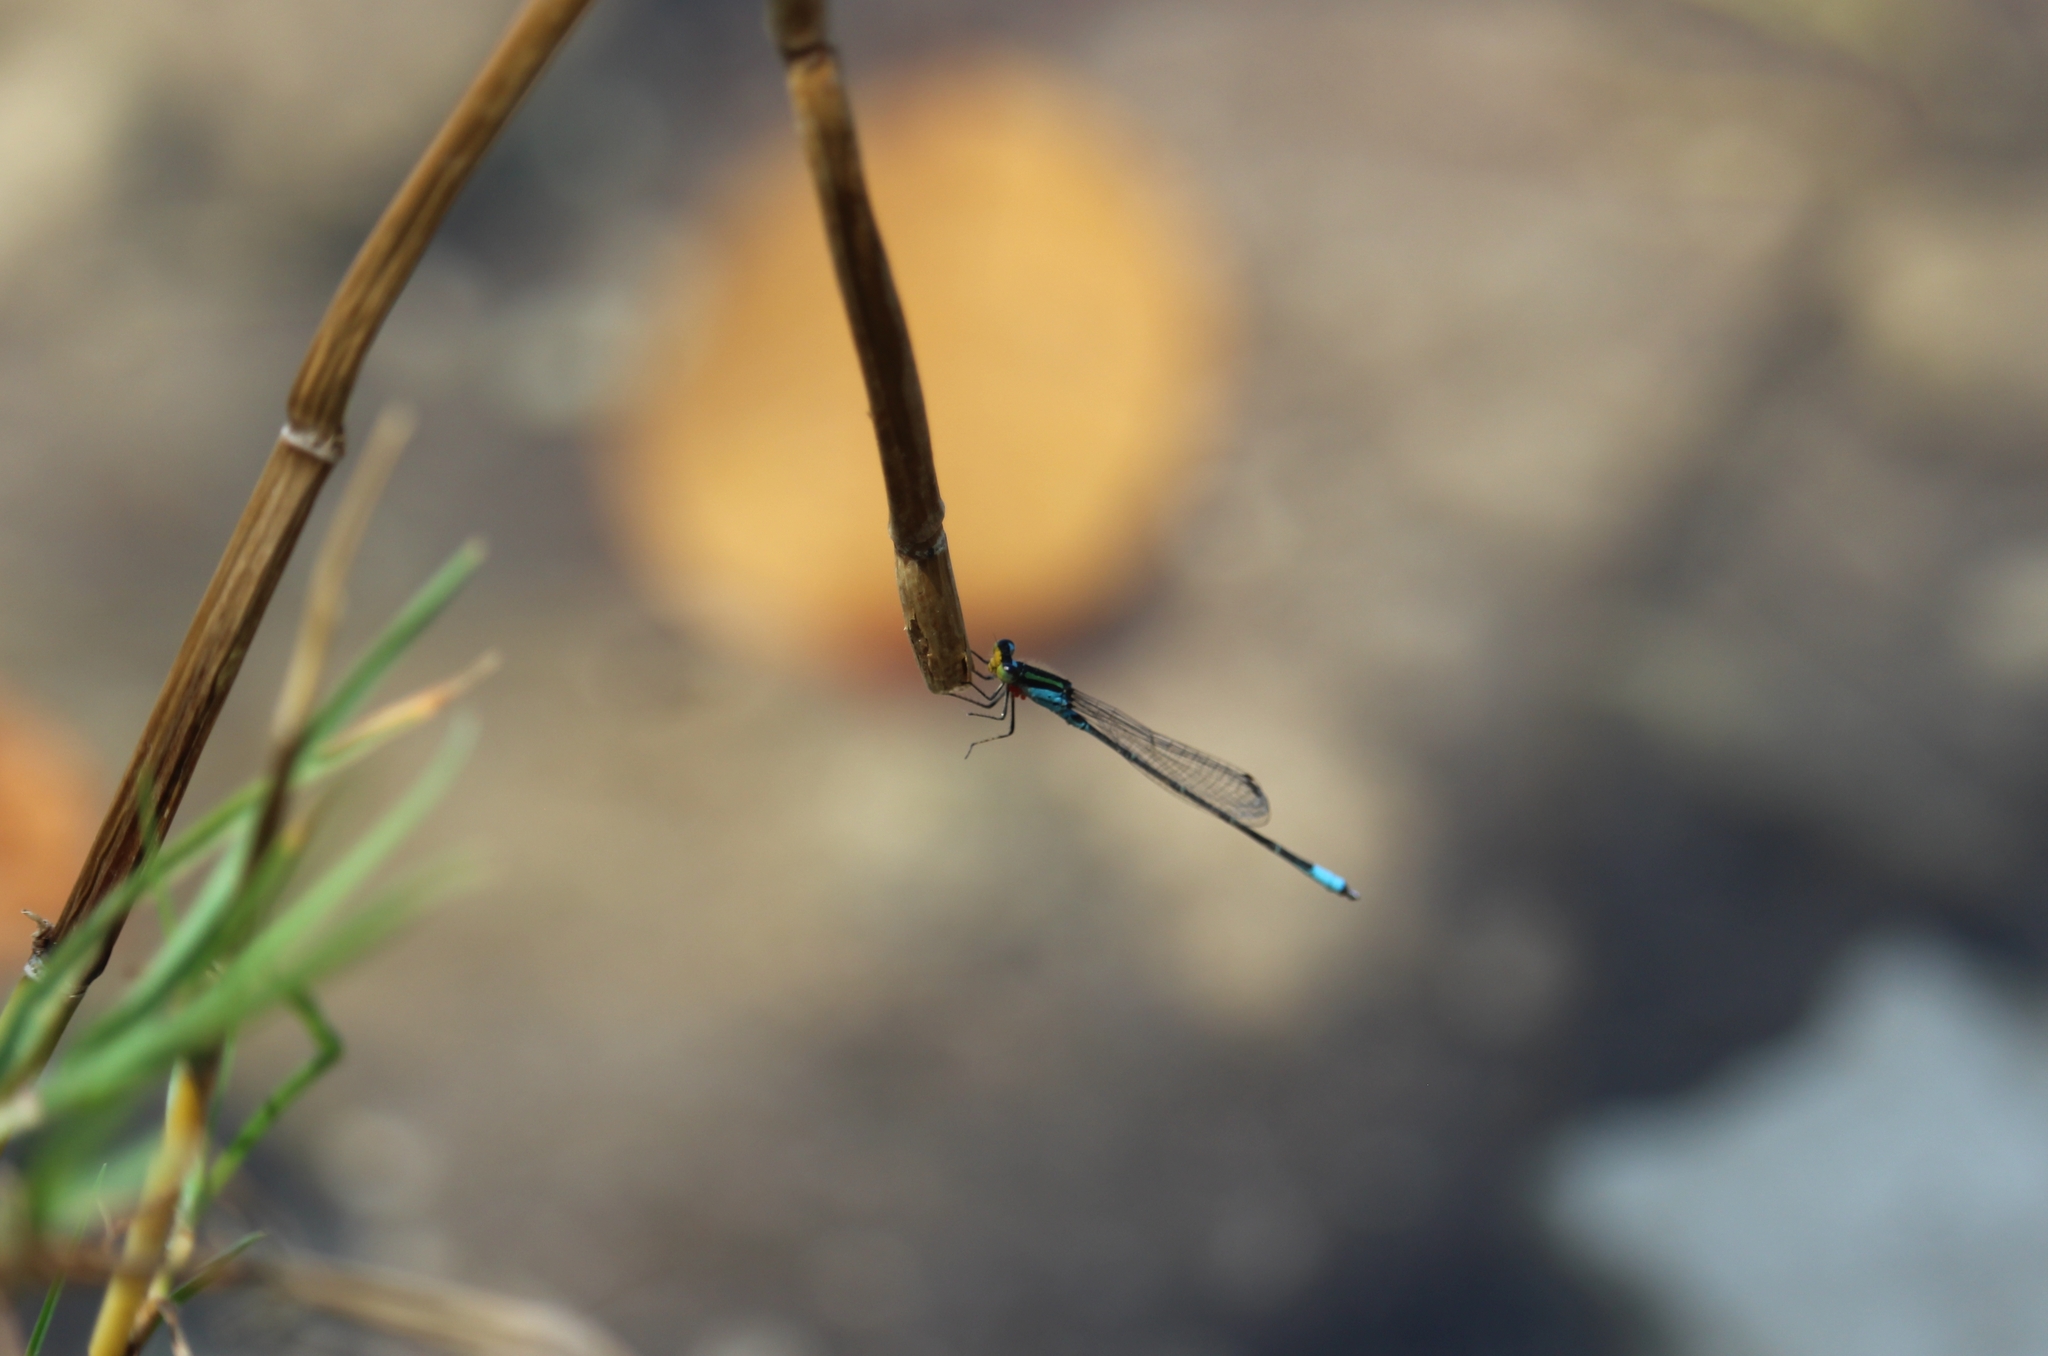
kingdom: Animalia
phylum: Arthropoda
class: Insecta
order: Odonata
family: Coenagrionidae
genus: Neoerythromma
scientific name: Neoerythromma cultellatum
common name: Caribbean yellowface
